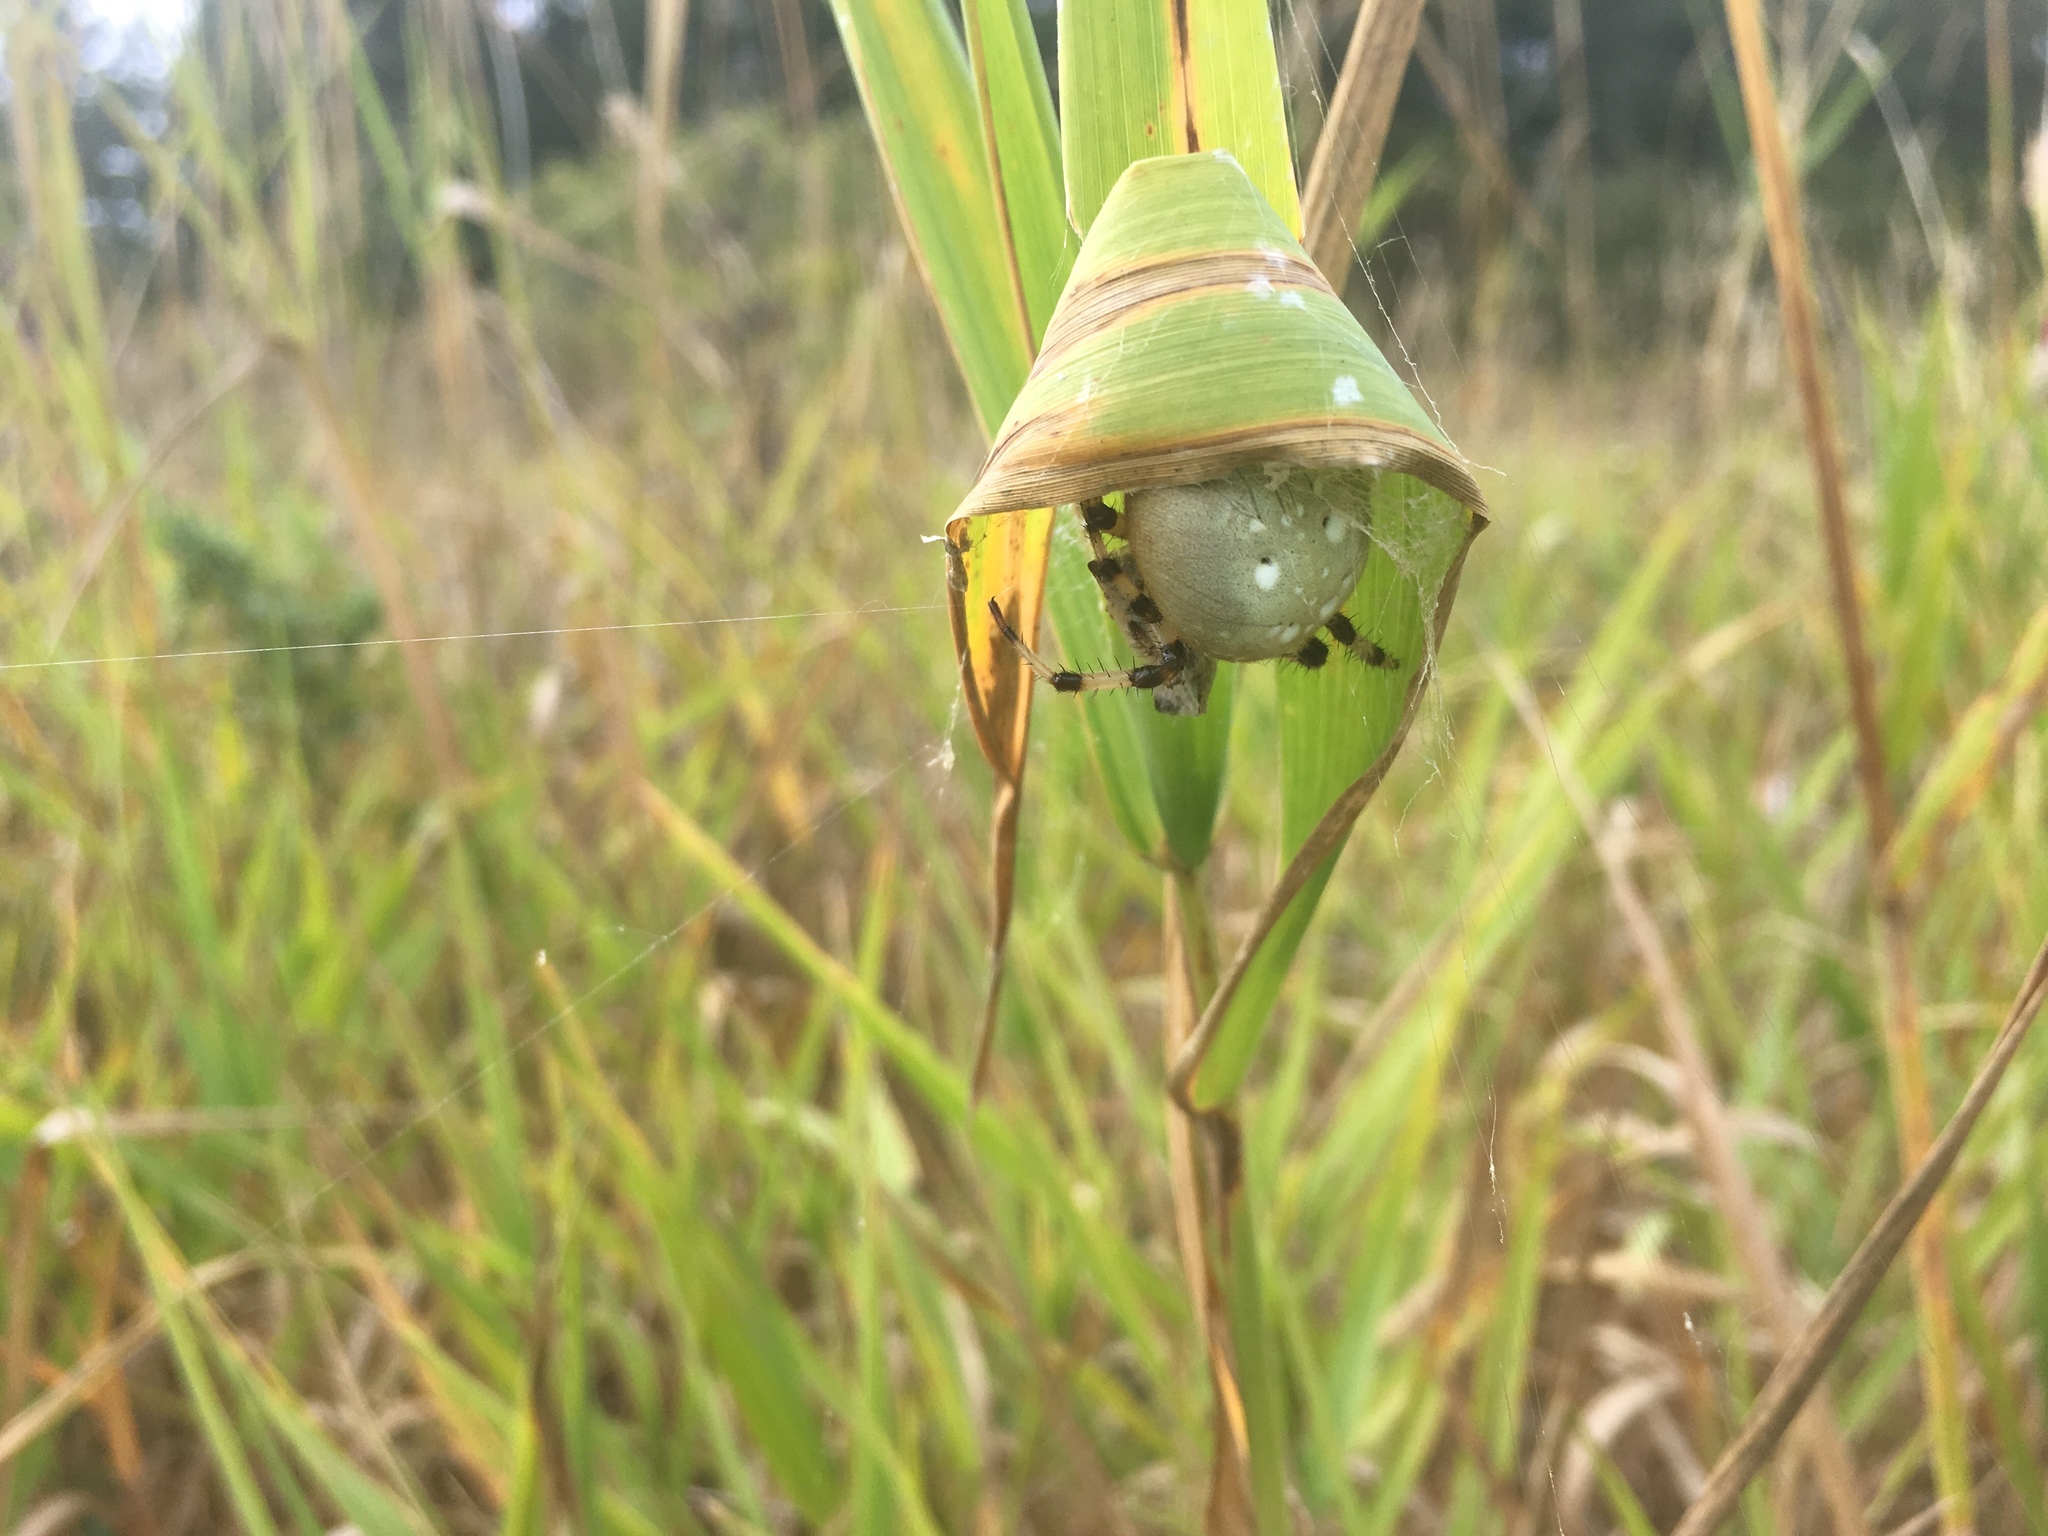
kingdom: Animalia
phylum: Arthropoda
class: Arachnida
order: Araneae
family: Araneidae
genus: Araneus
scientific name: Araneus trifolium
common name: Shamrock orbweaver
